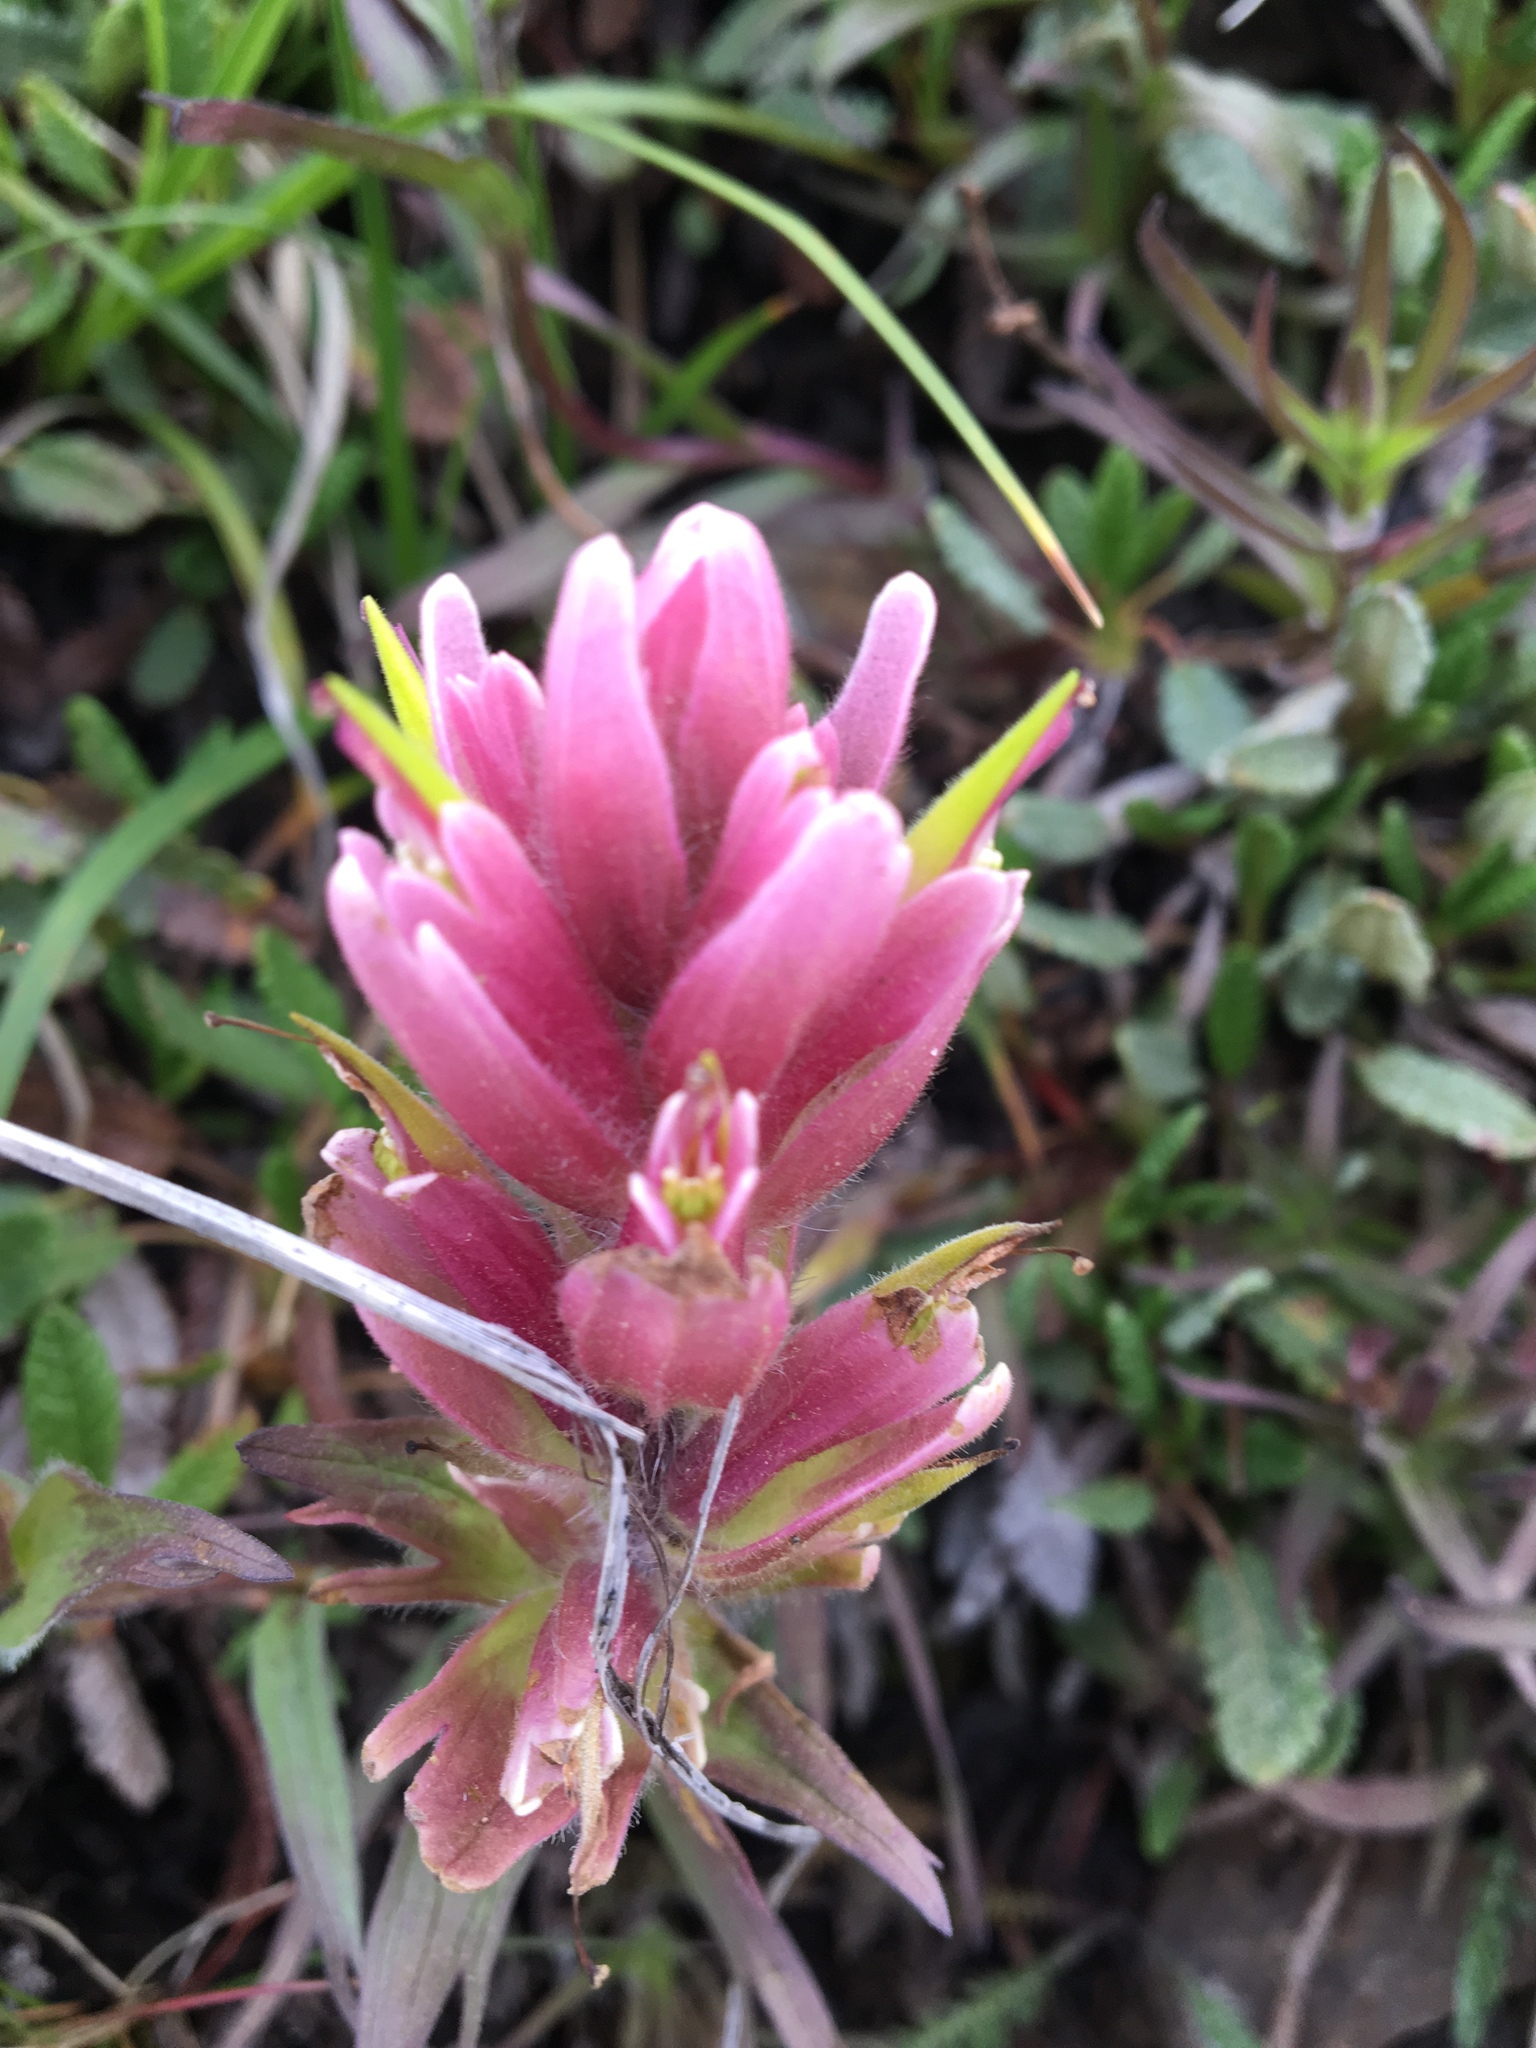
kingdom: Plantae
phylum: Tracheophyta
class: Magnoliopsida
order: Lamiales
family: Orobanchaceae
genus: Castilleja
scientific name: Castilleja occidentalis
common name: Western paintbrush
